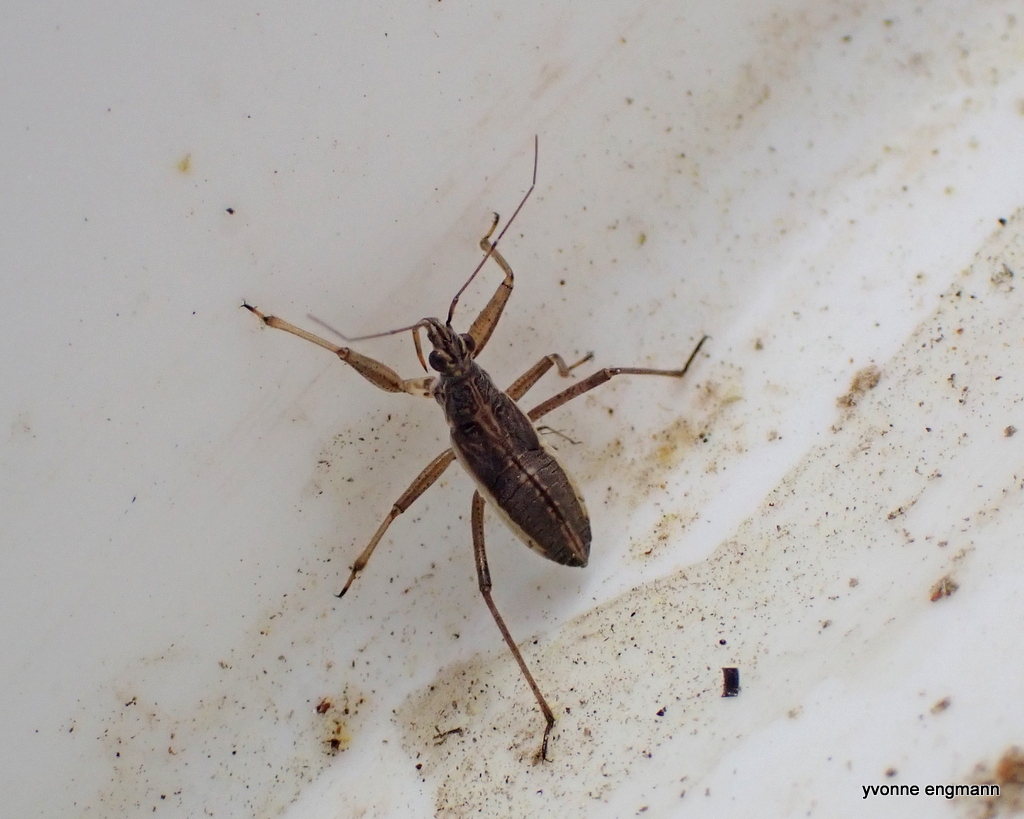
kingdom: Animalia
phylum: Arthropoda
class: Insecta
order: Hemiptera
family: Nabidae
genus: Nabis
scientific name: Nabis flavomarginatus
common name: Broad damselbug
